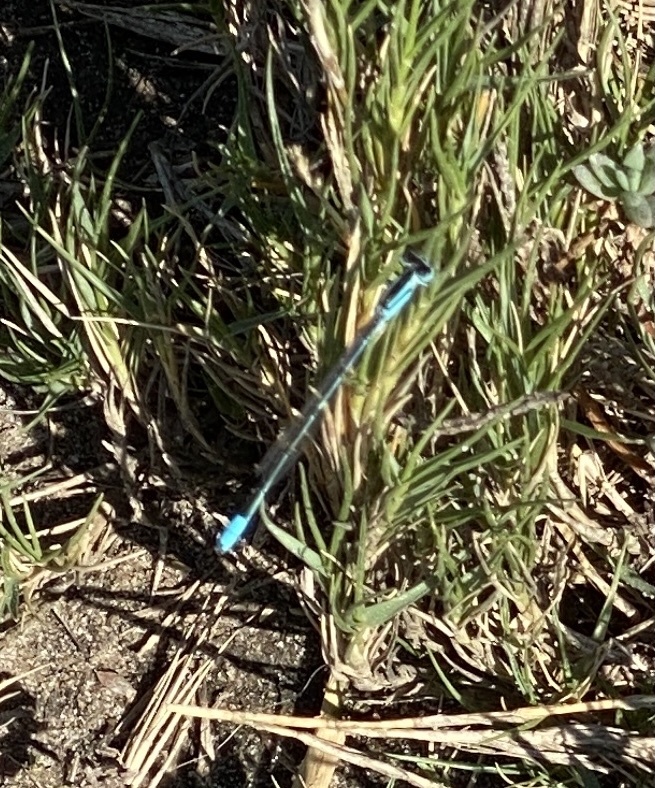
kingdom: Animalia
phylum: Arthropoda
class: Insecta
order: Odonata
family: Coenagrionidae
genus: Africallagma
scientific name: Africallagma glaucum
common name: Swamp bluet
